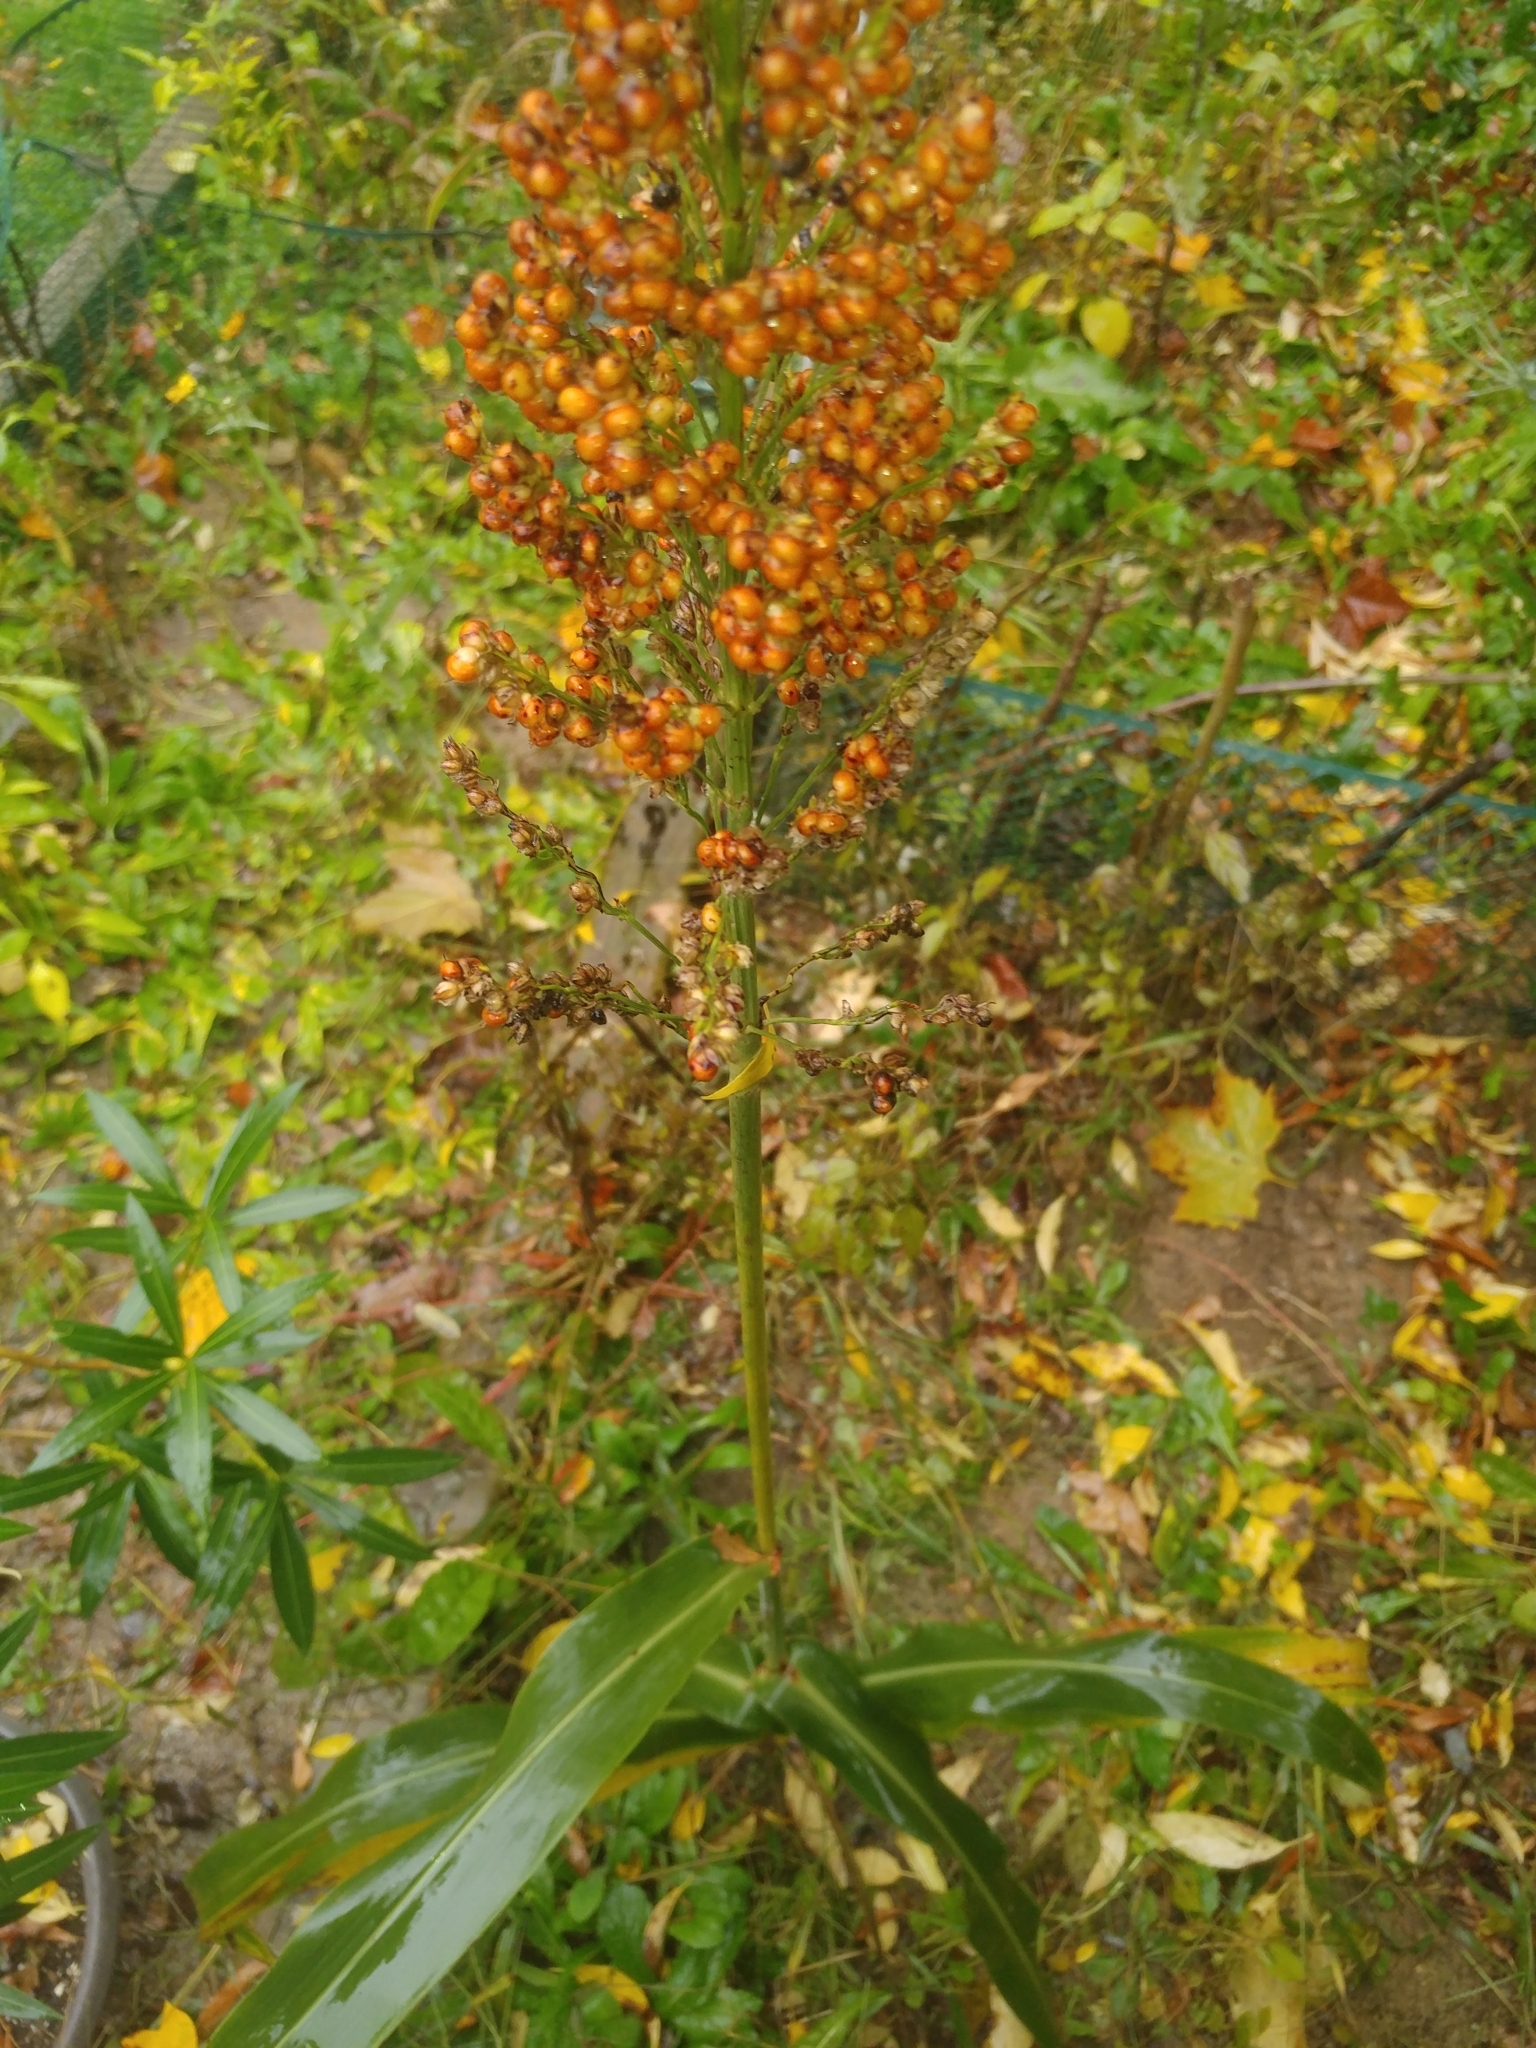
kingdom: Plantae
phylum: Tracheophyta
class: Liliopsida
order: Poales
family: Poaceae
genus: Sorghum
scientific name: Sorghum bicolor
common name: Sorghum
